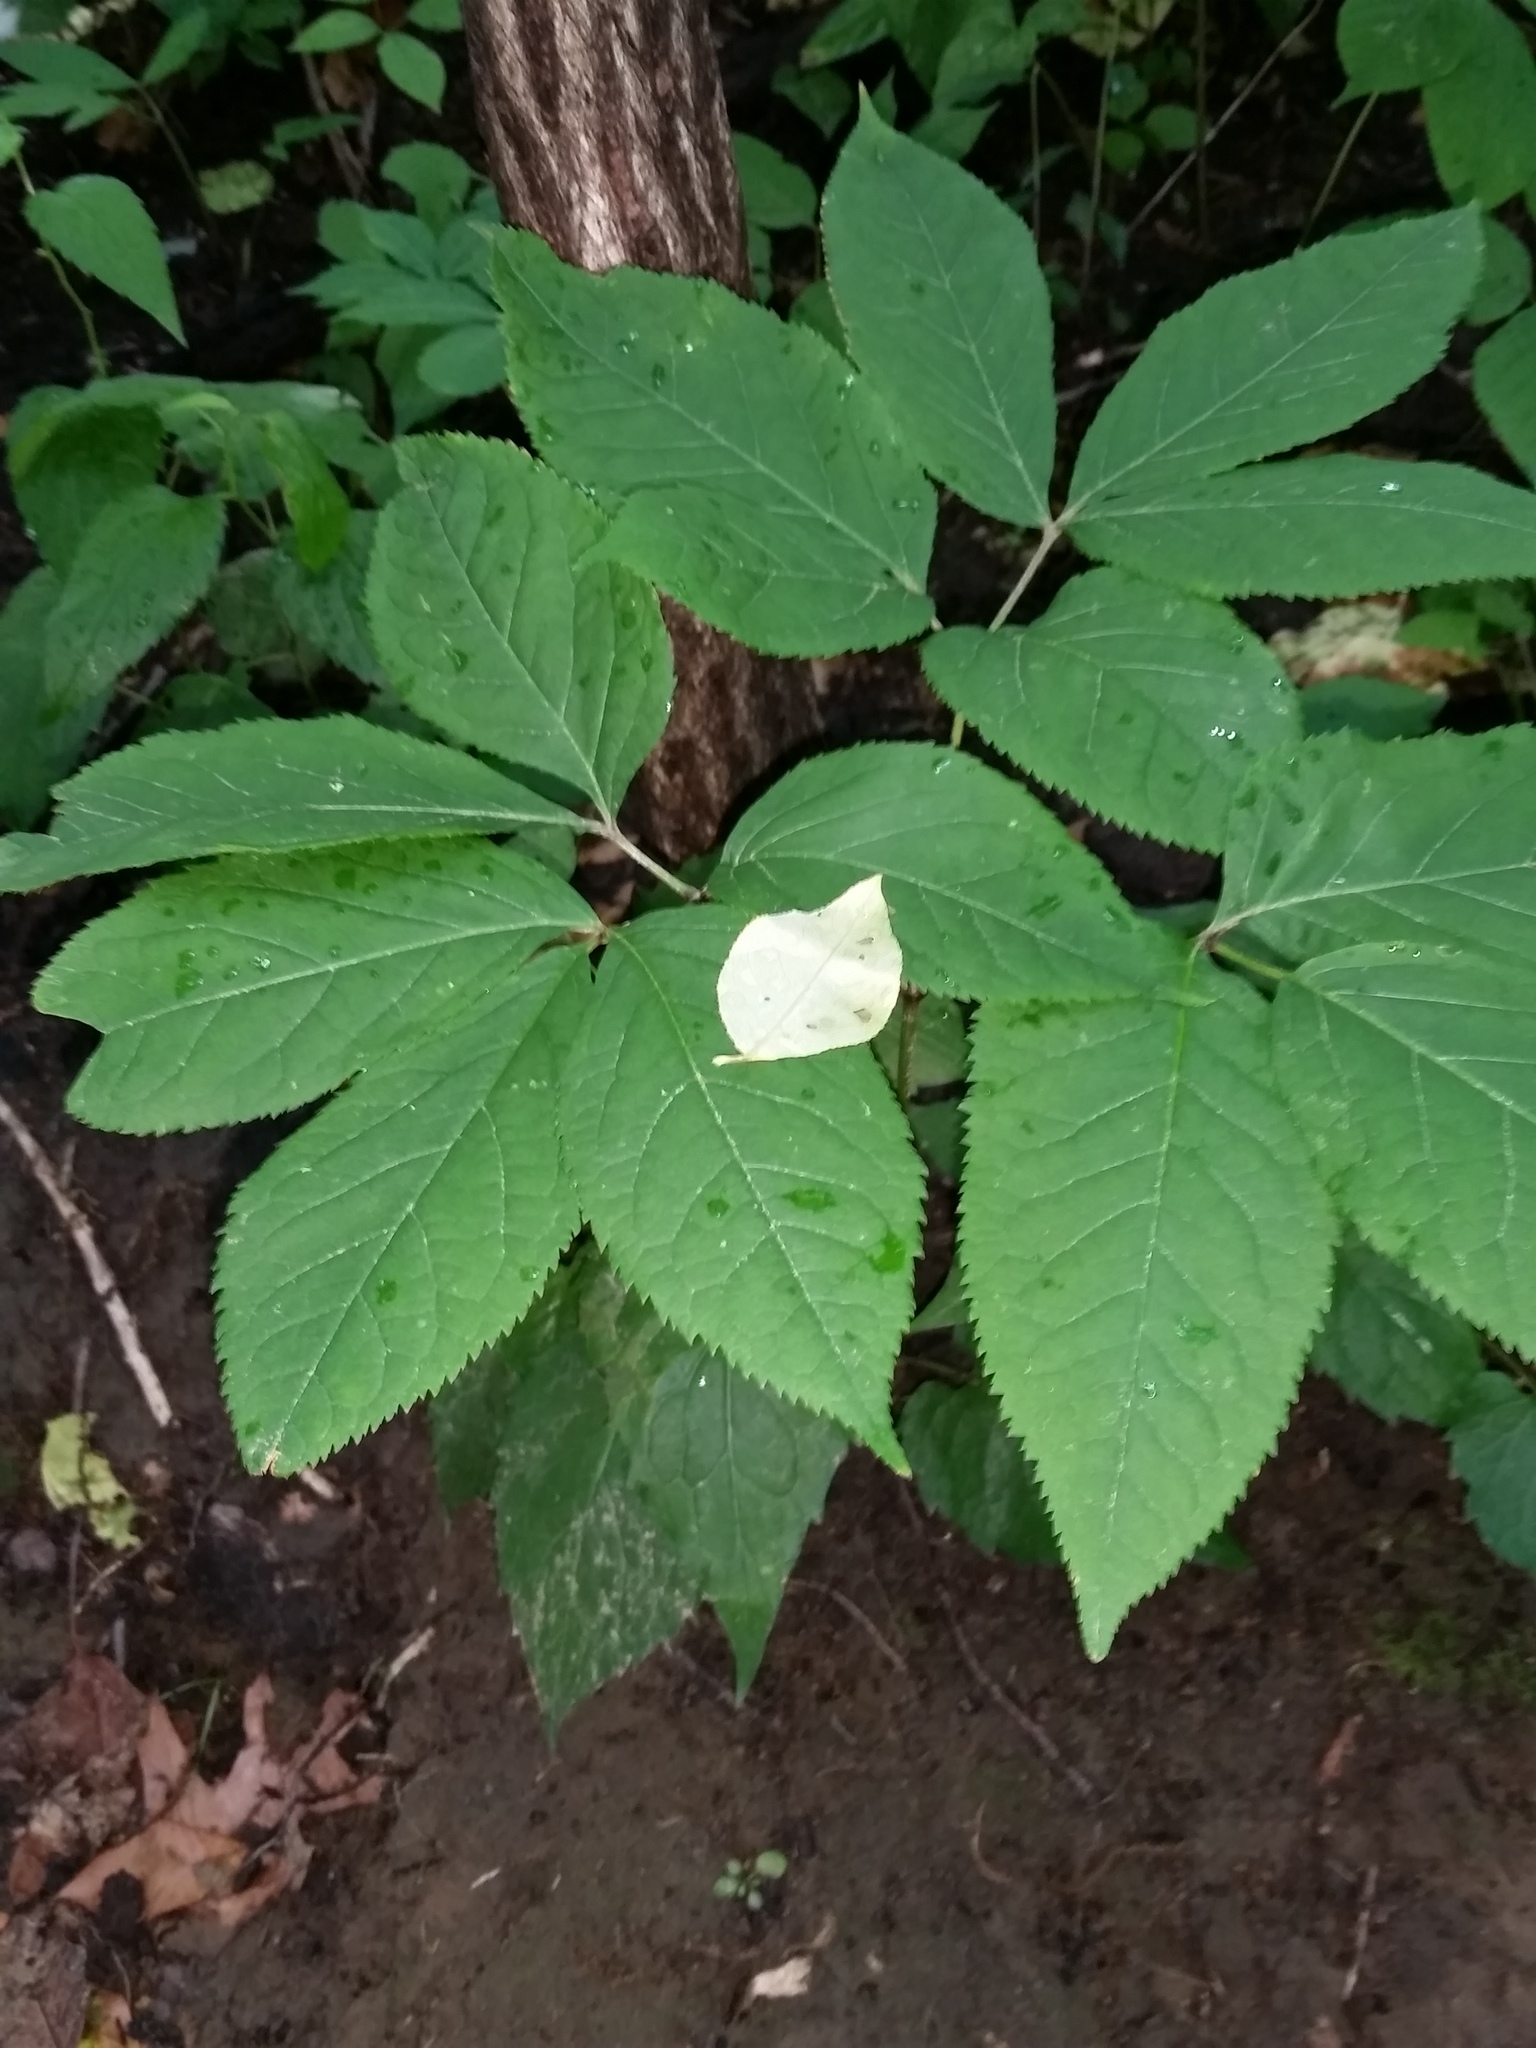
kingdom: Plantae
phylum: Tracheophyta
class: Magnoliopsida
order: Apiales
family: Araliaceae
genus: Aralia
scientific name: Aralia nudicaulis
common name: Wild sarsaparilla
